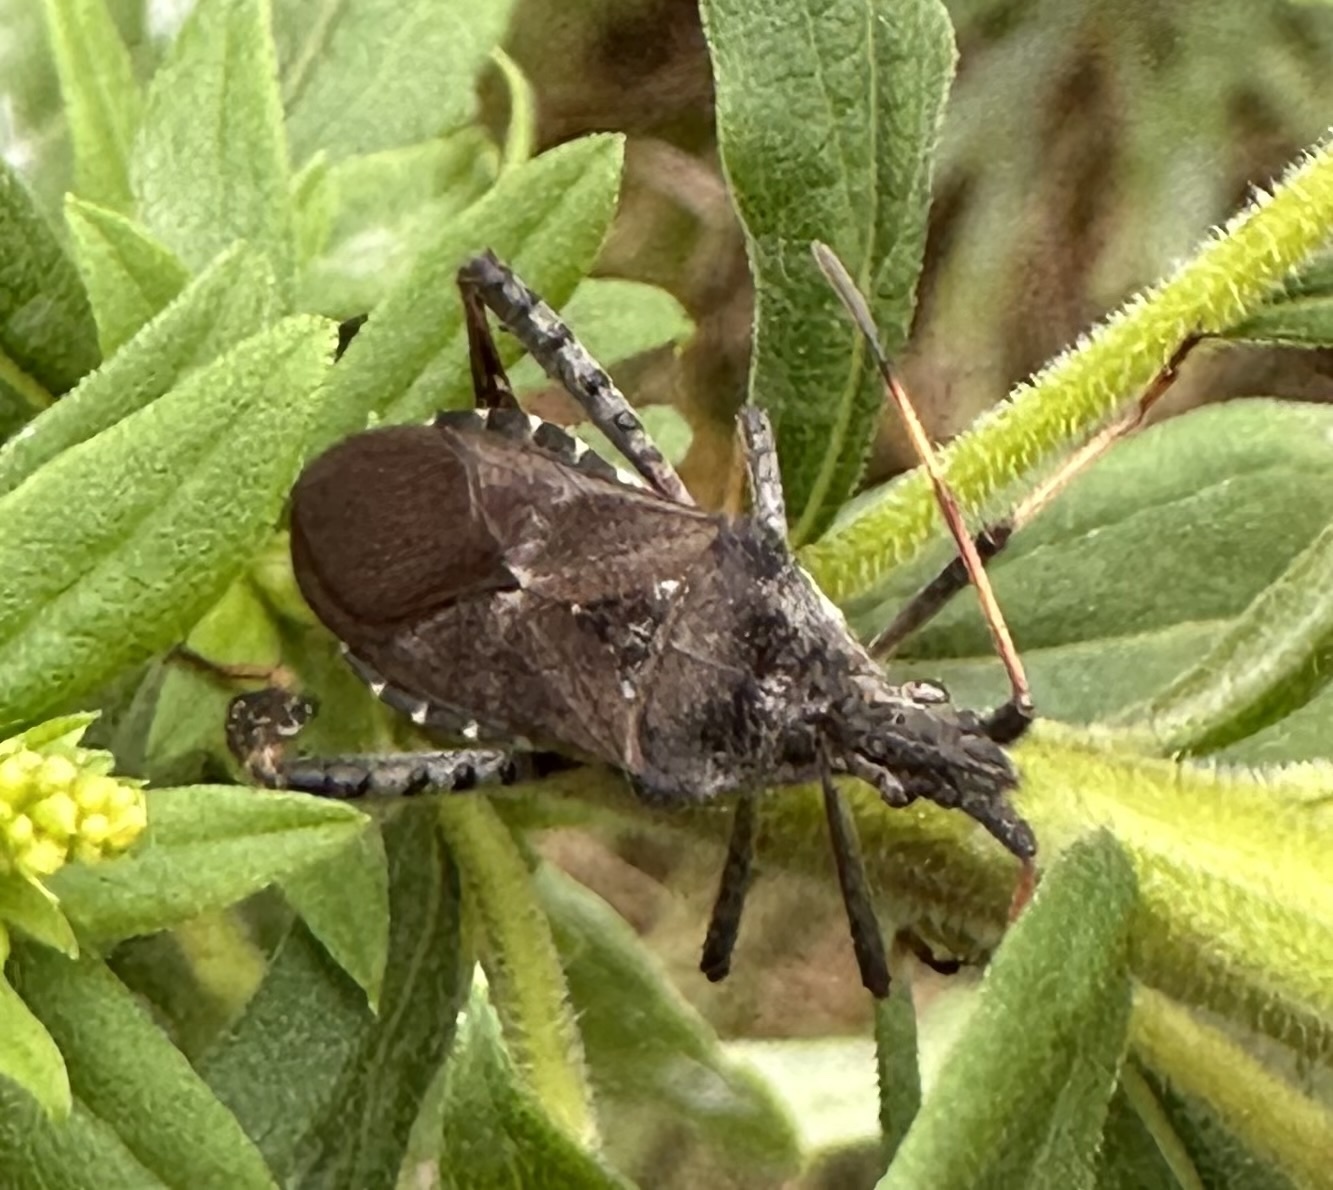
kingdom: Animalia
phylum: Arthropoda
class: Insecta
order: Hemiptera
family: Coreidae
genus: Leptoglossus
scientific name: Leptoglossus corculus
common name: Southern pine seed bug
